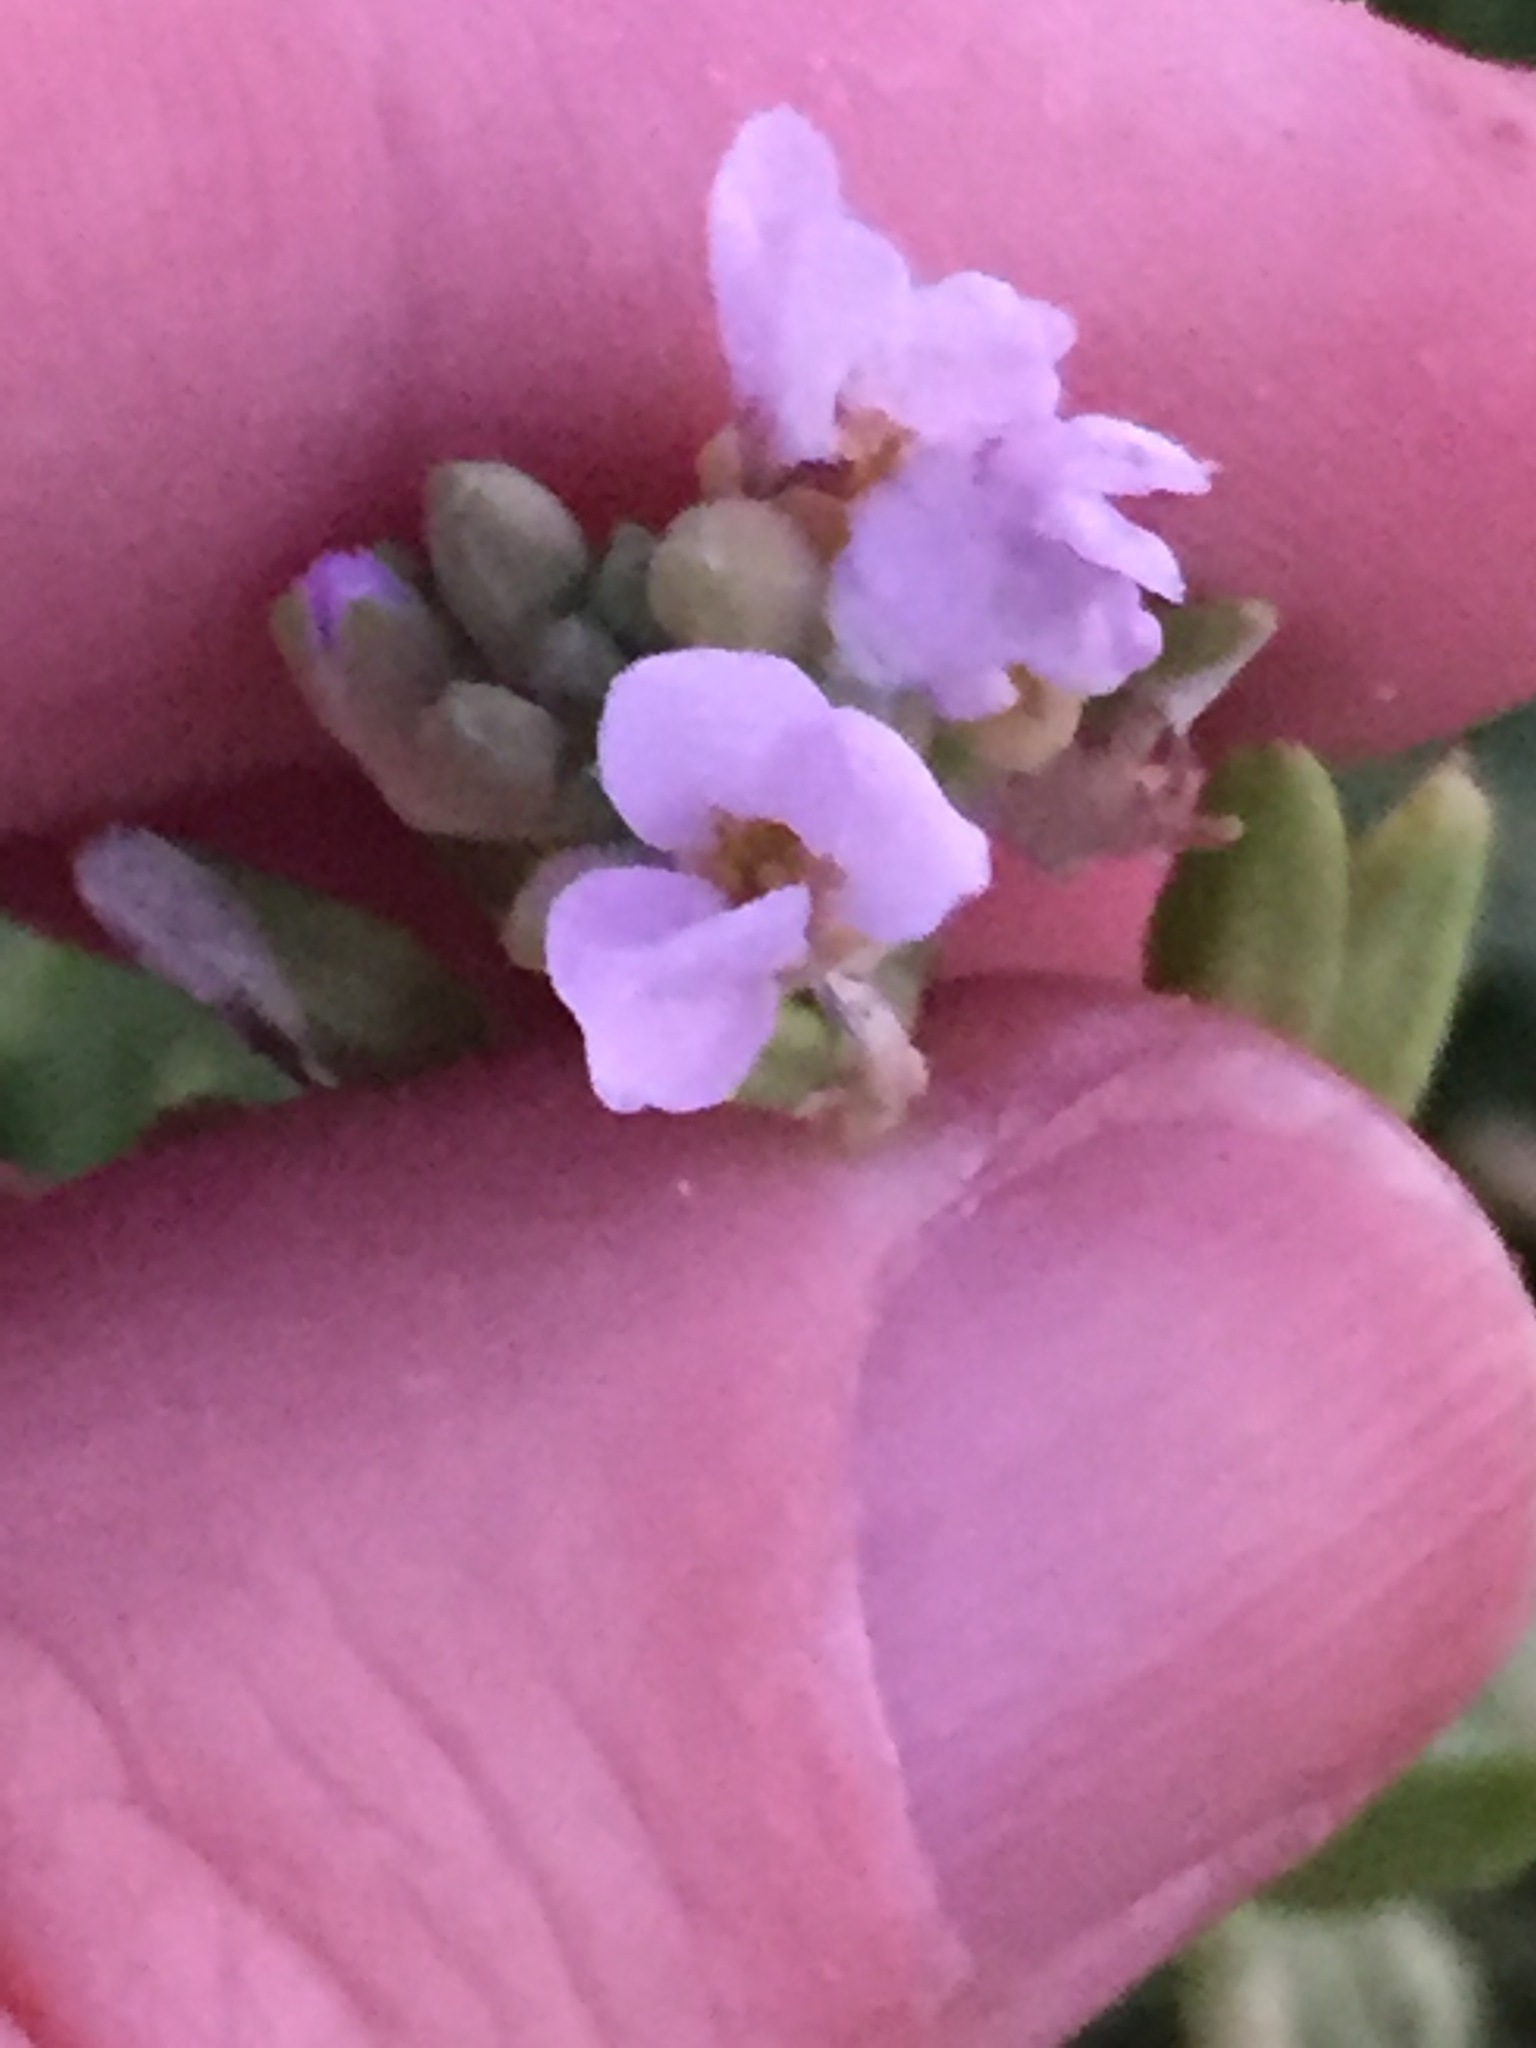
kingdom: Plantae
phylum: Tracheophyta
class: Magnoliopsida
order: Brassicales
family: Brassicaceae
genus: Cakile
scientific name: Cakile maritima
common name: Sea rocket
